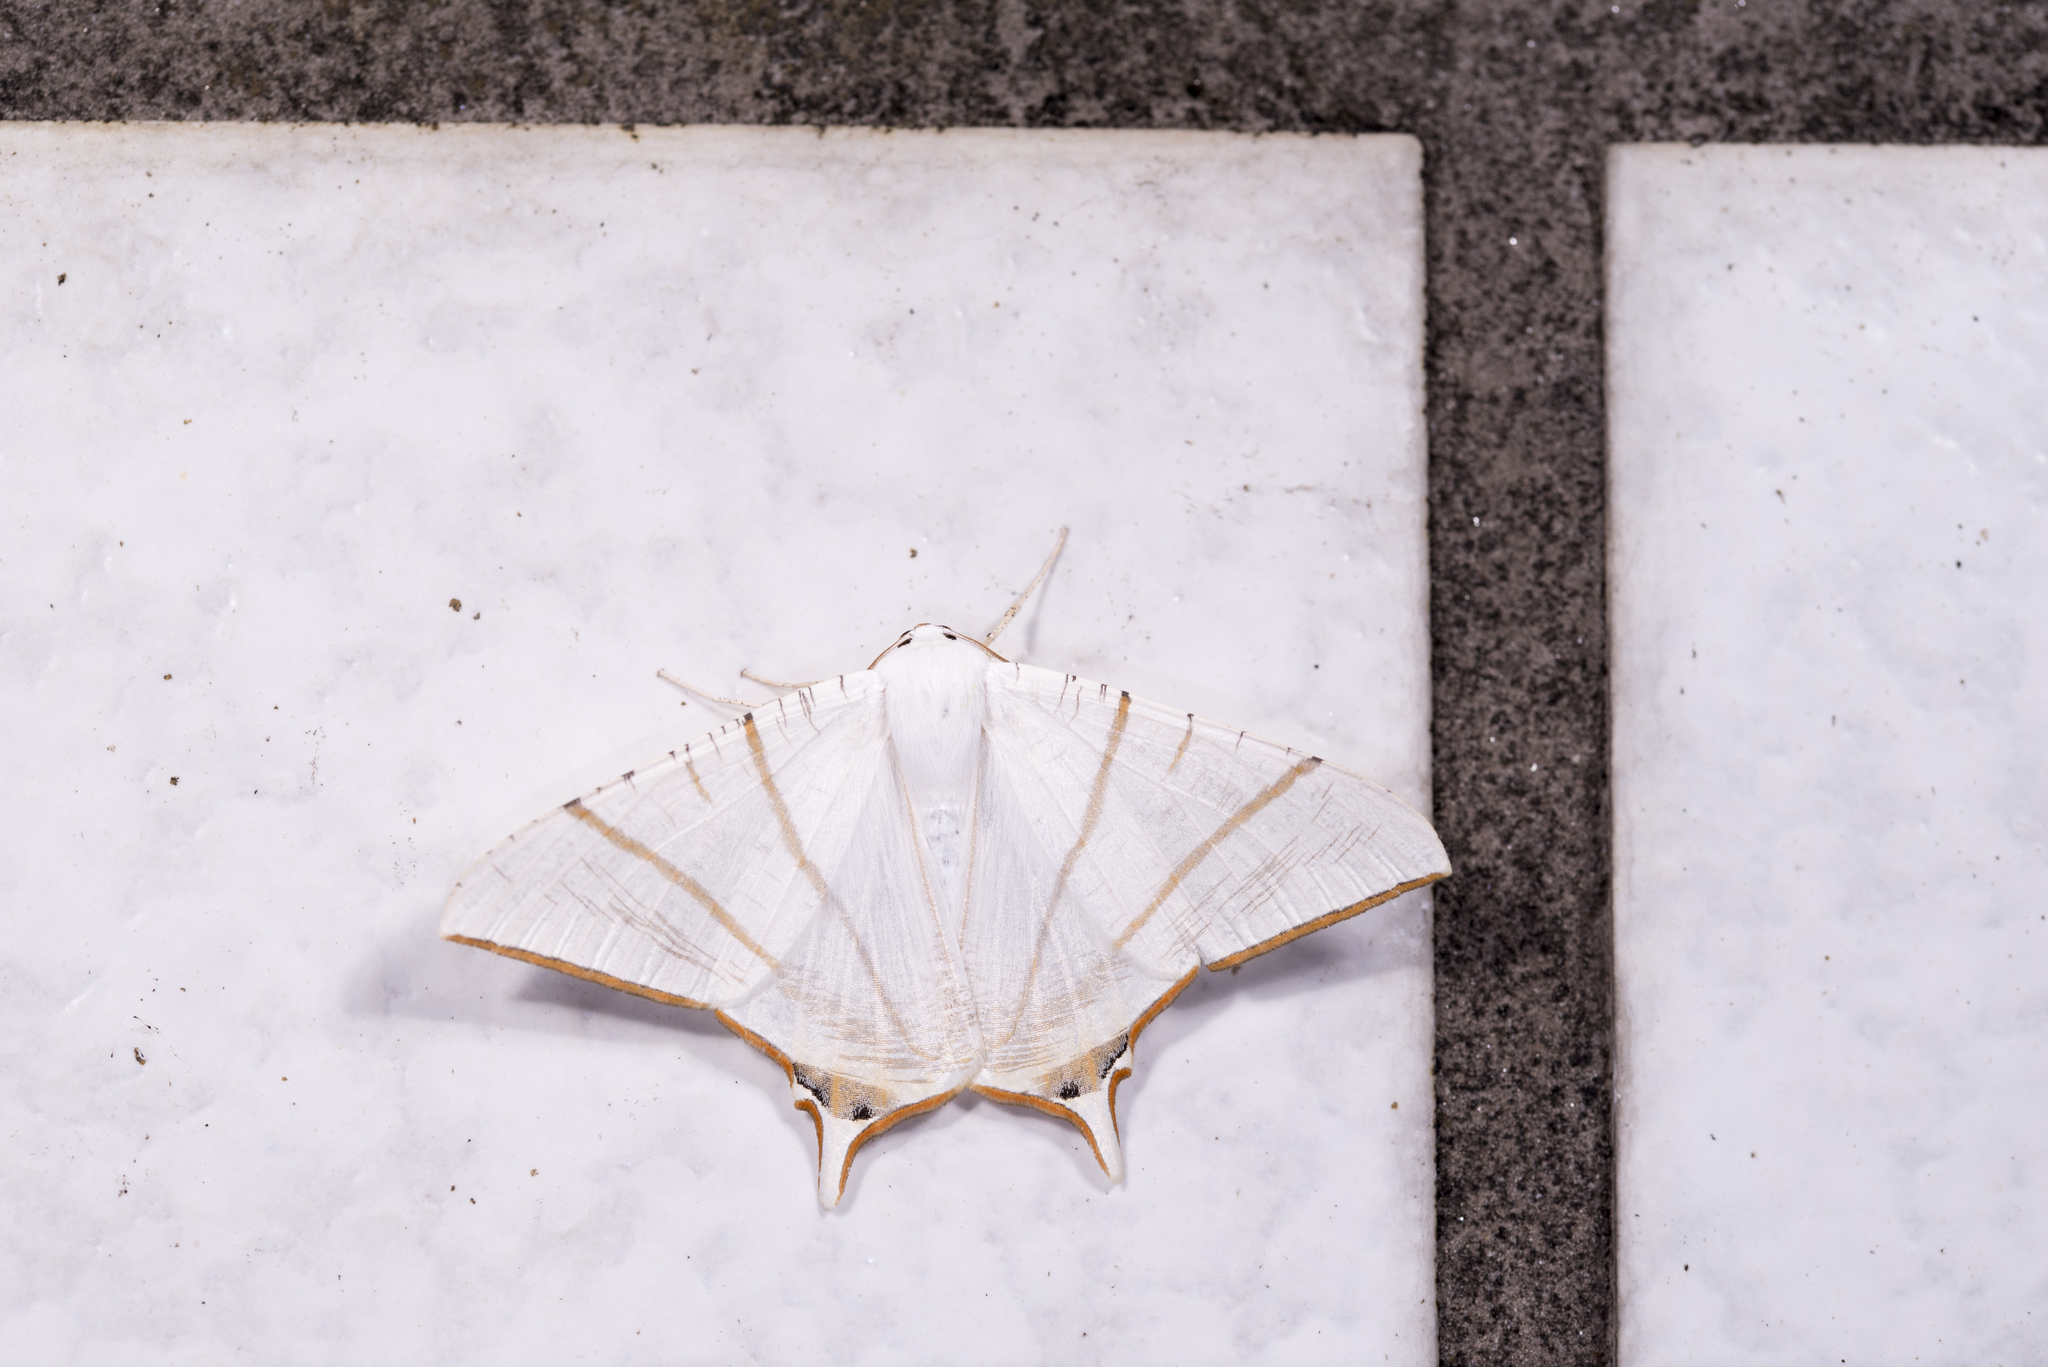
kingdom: Animalia
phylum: Arthropoda
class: Insecta
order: Lepidoptera
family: Geometridae
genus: Ourapteryx
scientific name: Ourapteryx clara
